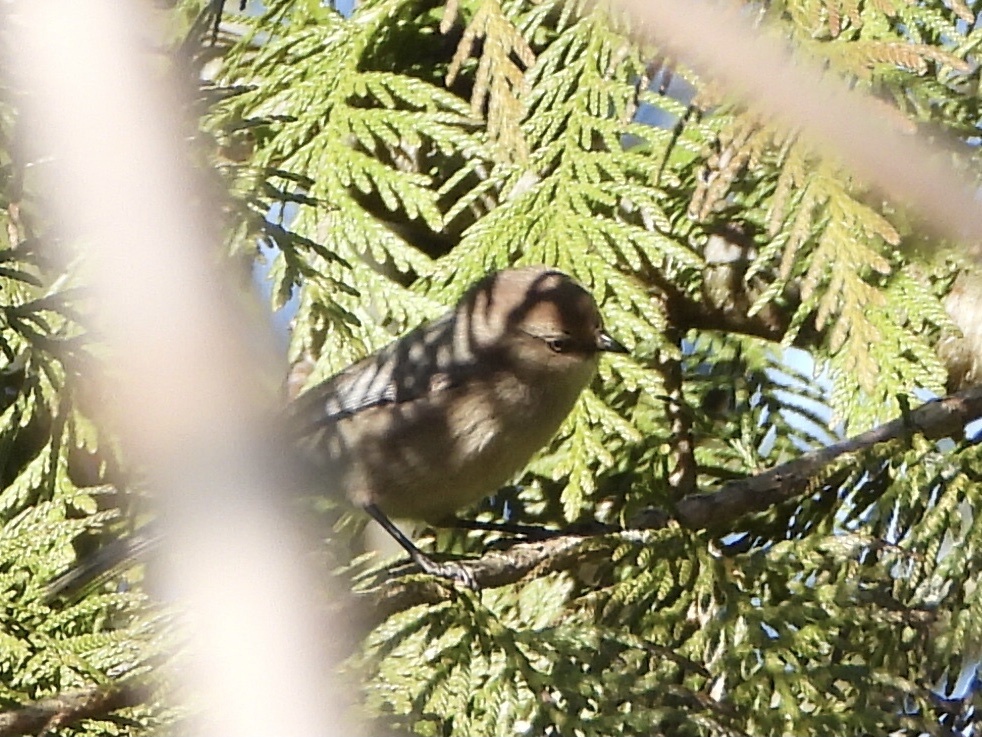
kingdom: Animalia
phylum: Chordata
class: Aves
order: Passeriformes
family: Aegithalidae
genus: Psaltriparus
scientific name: Psaltriparus minimus
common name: American bushtit
